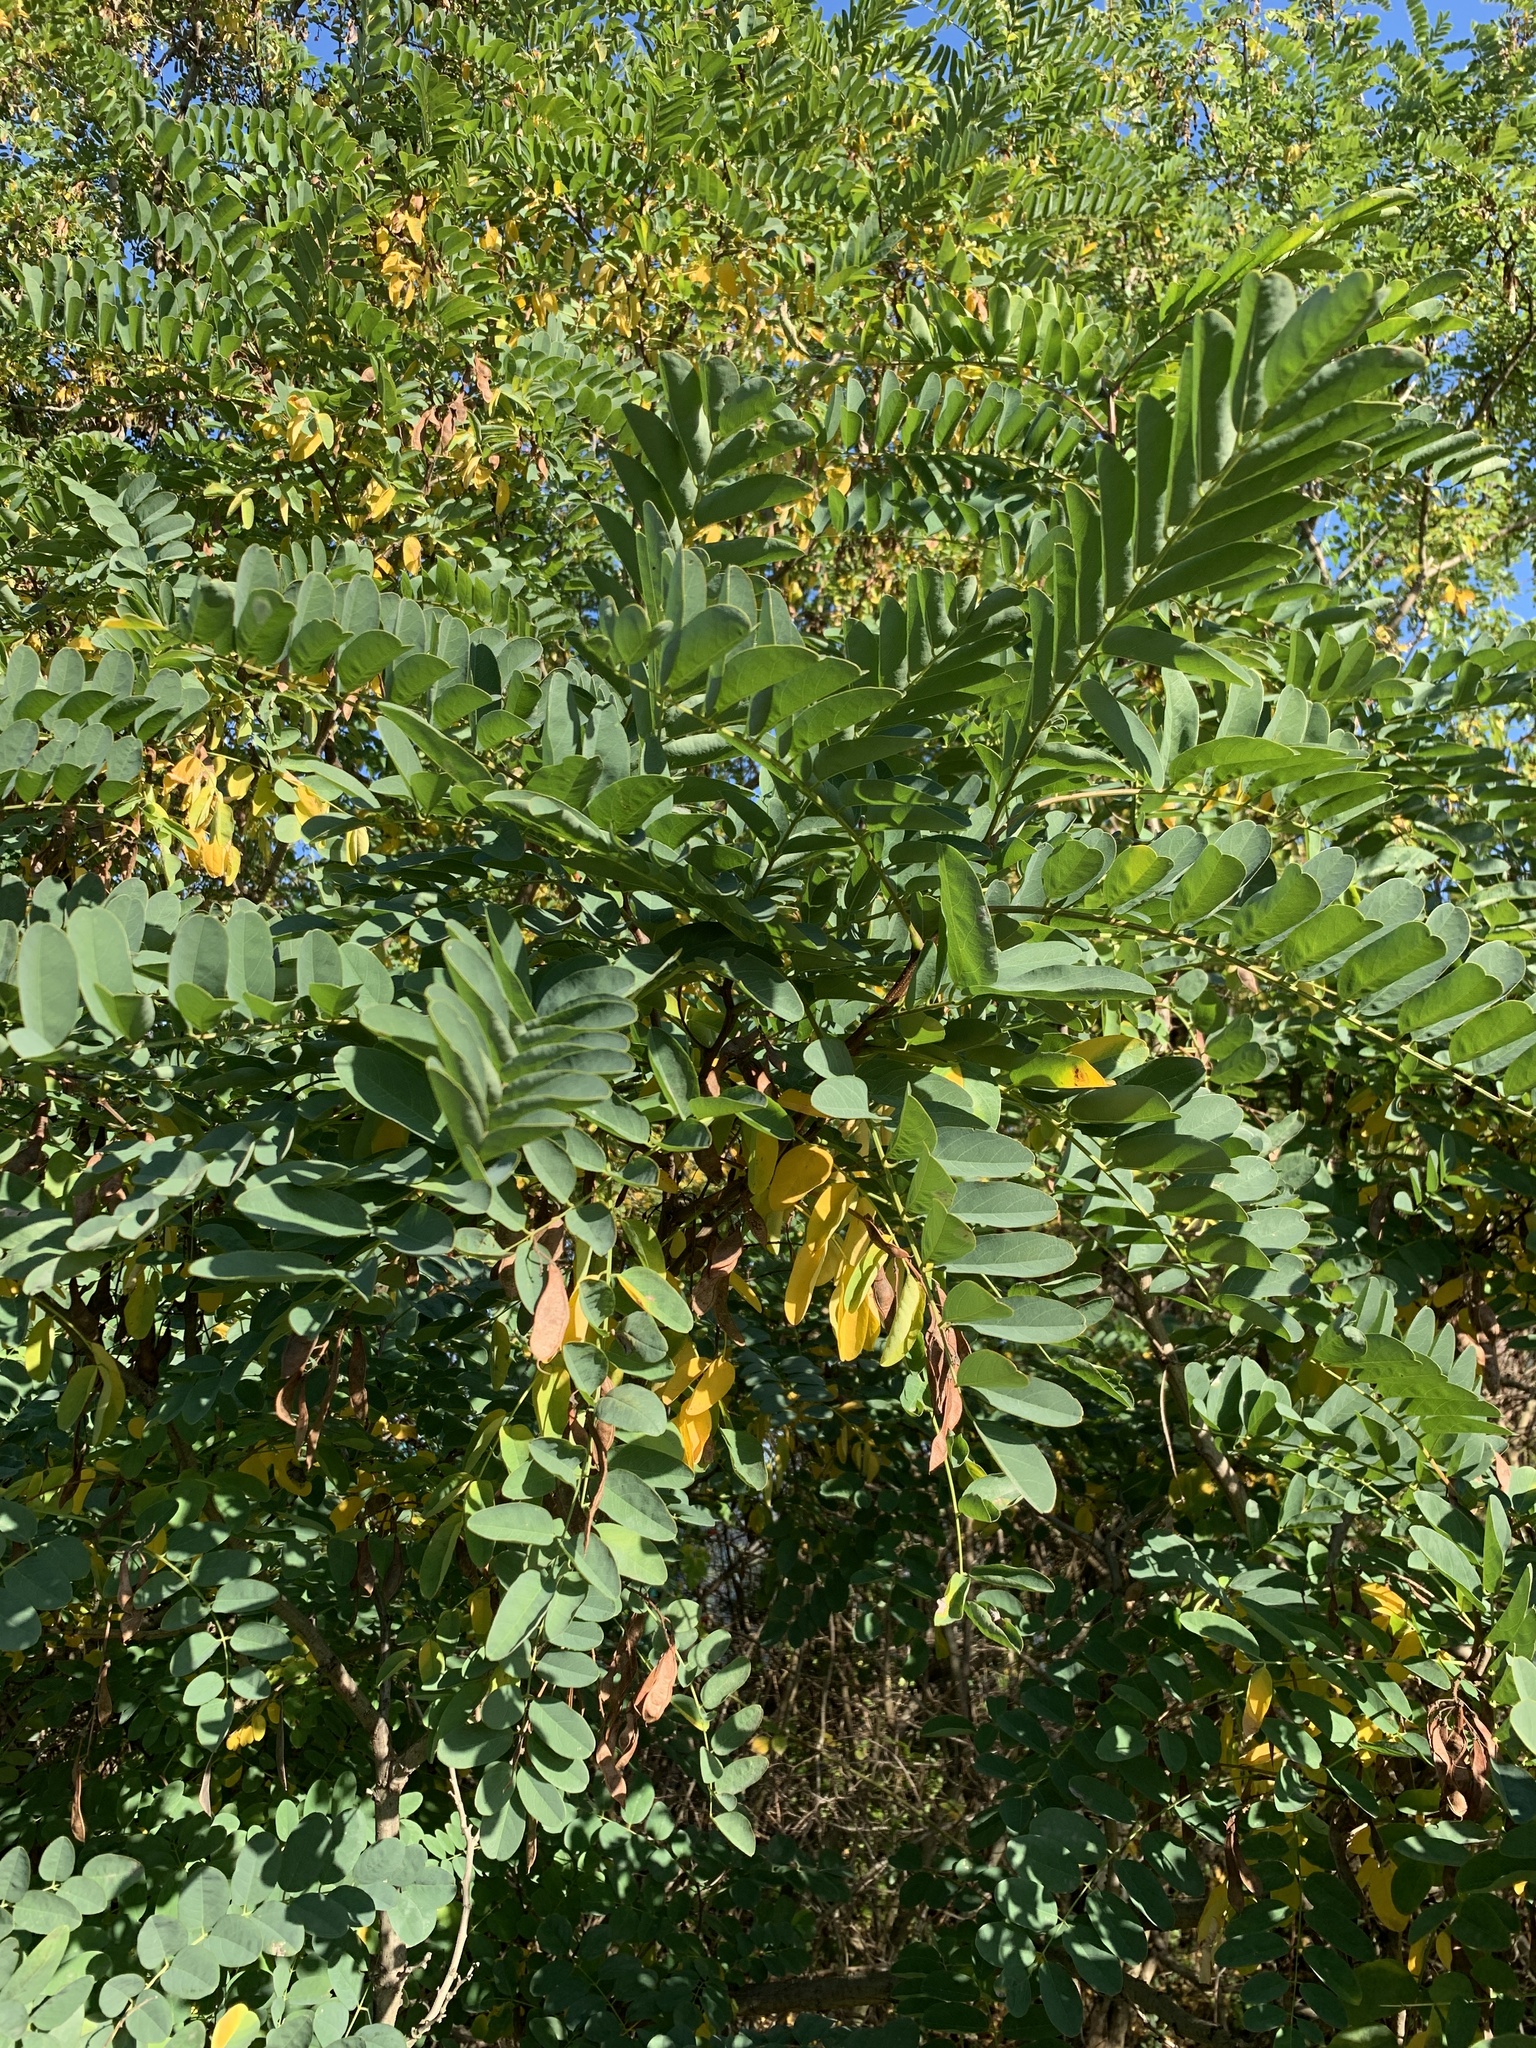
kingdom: Plantae
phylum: Tracheophyta
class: Magnoliopsida
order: Fabales
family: Fabaceae
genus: Robinia
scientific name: Robinia pseudoacacia
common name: Black locust
